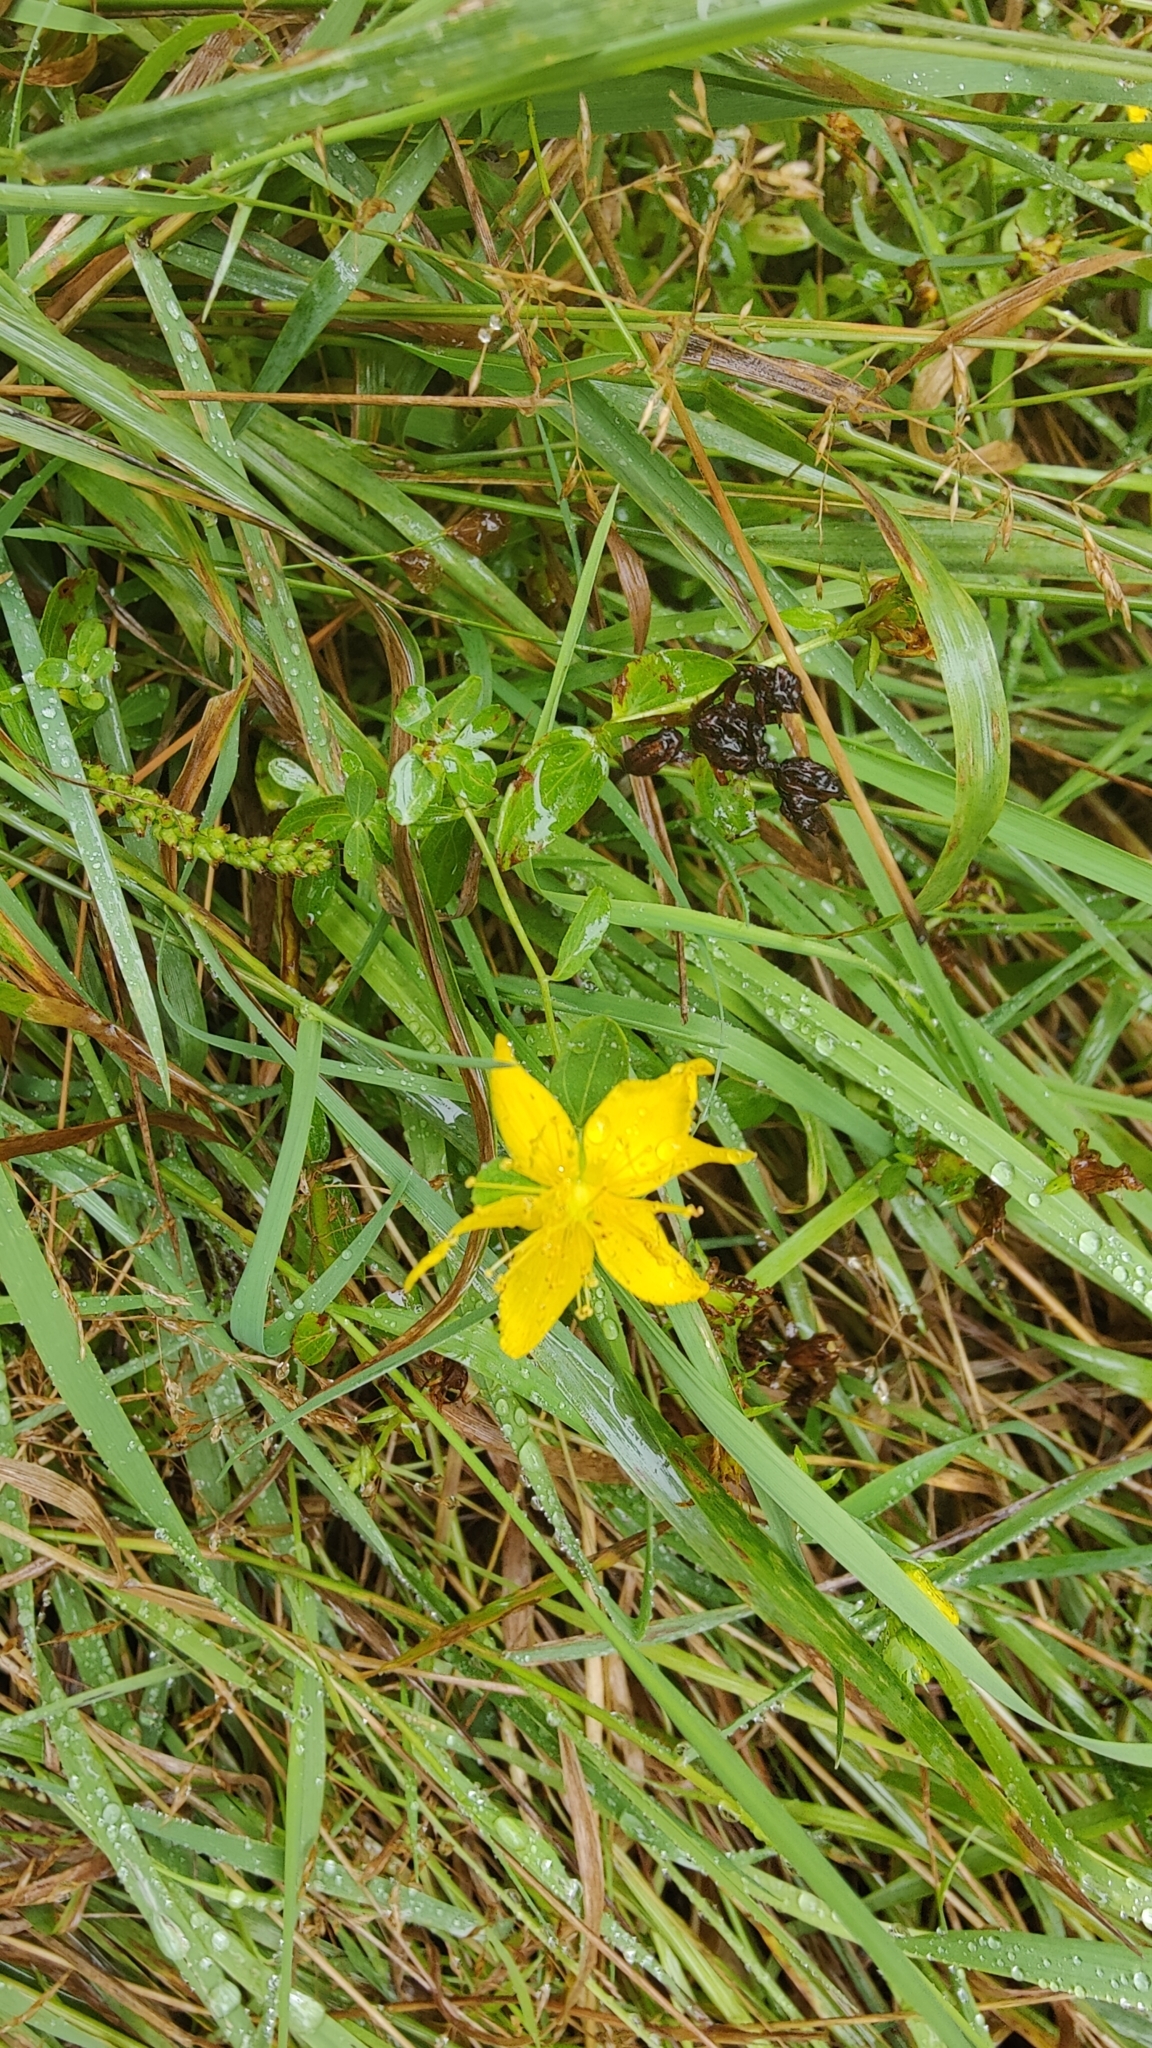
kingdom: Plantae
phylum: Tracheophyta
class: Magnoliopsida
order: Malpighiales
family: Hypericaceae
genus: Hypericum
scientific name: Hypericum perforatum
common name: Common st. johnswort
